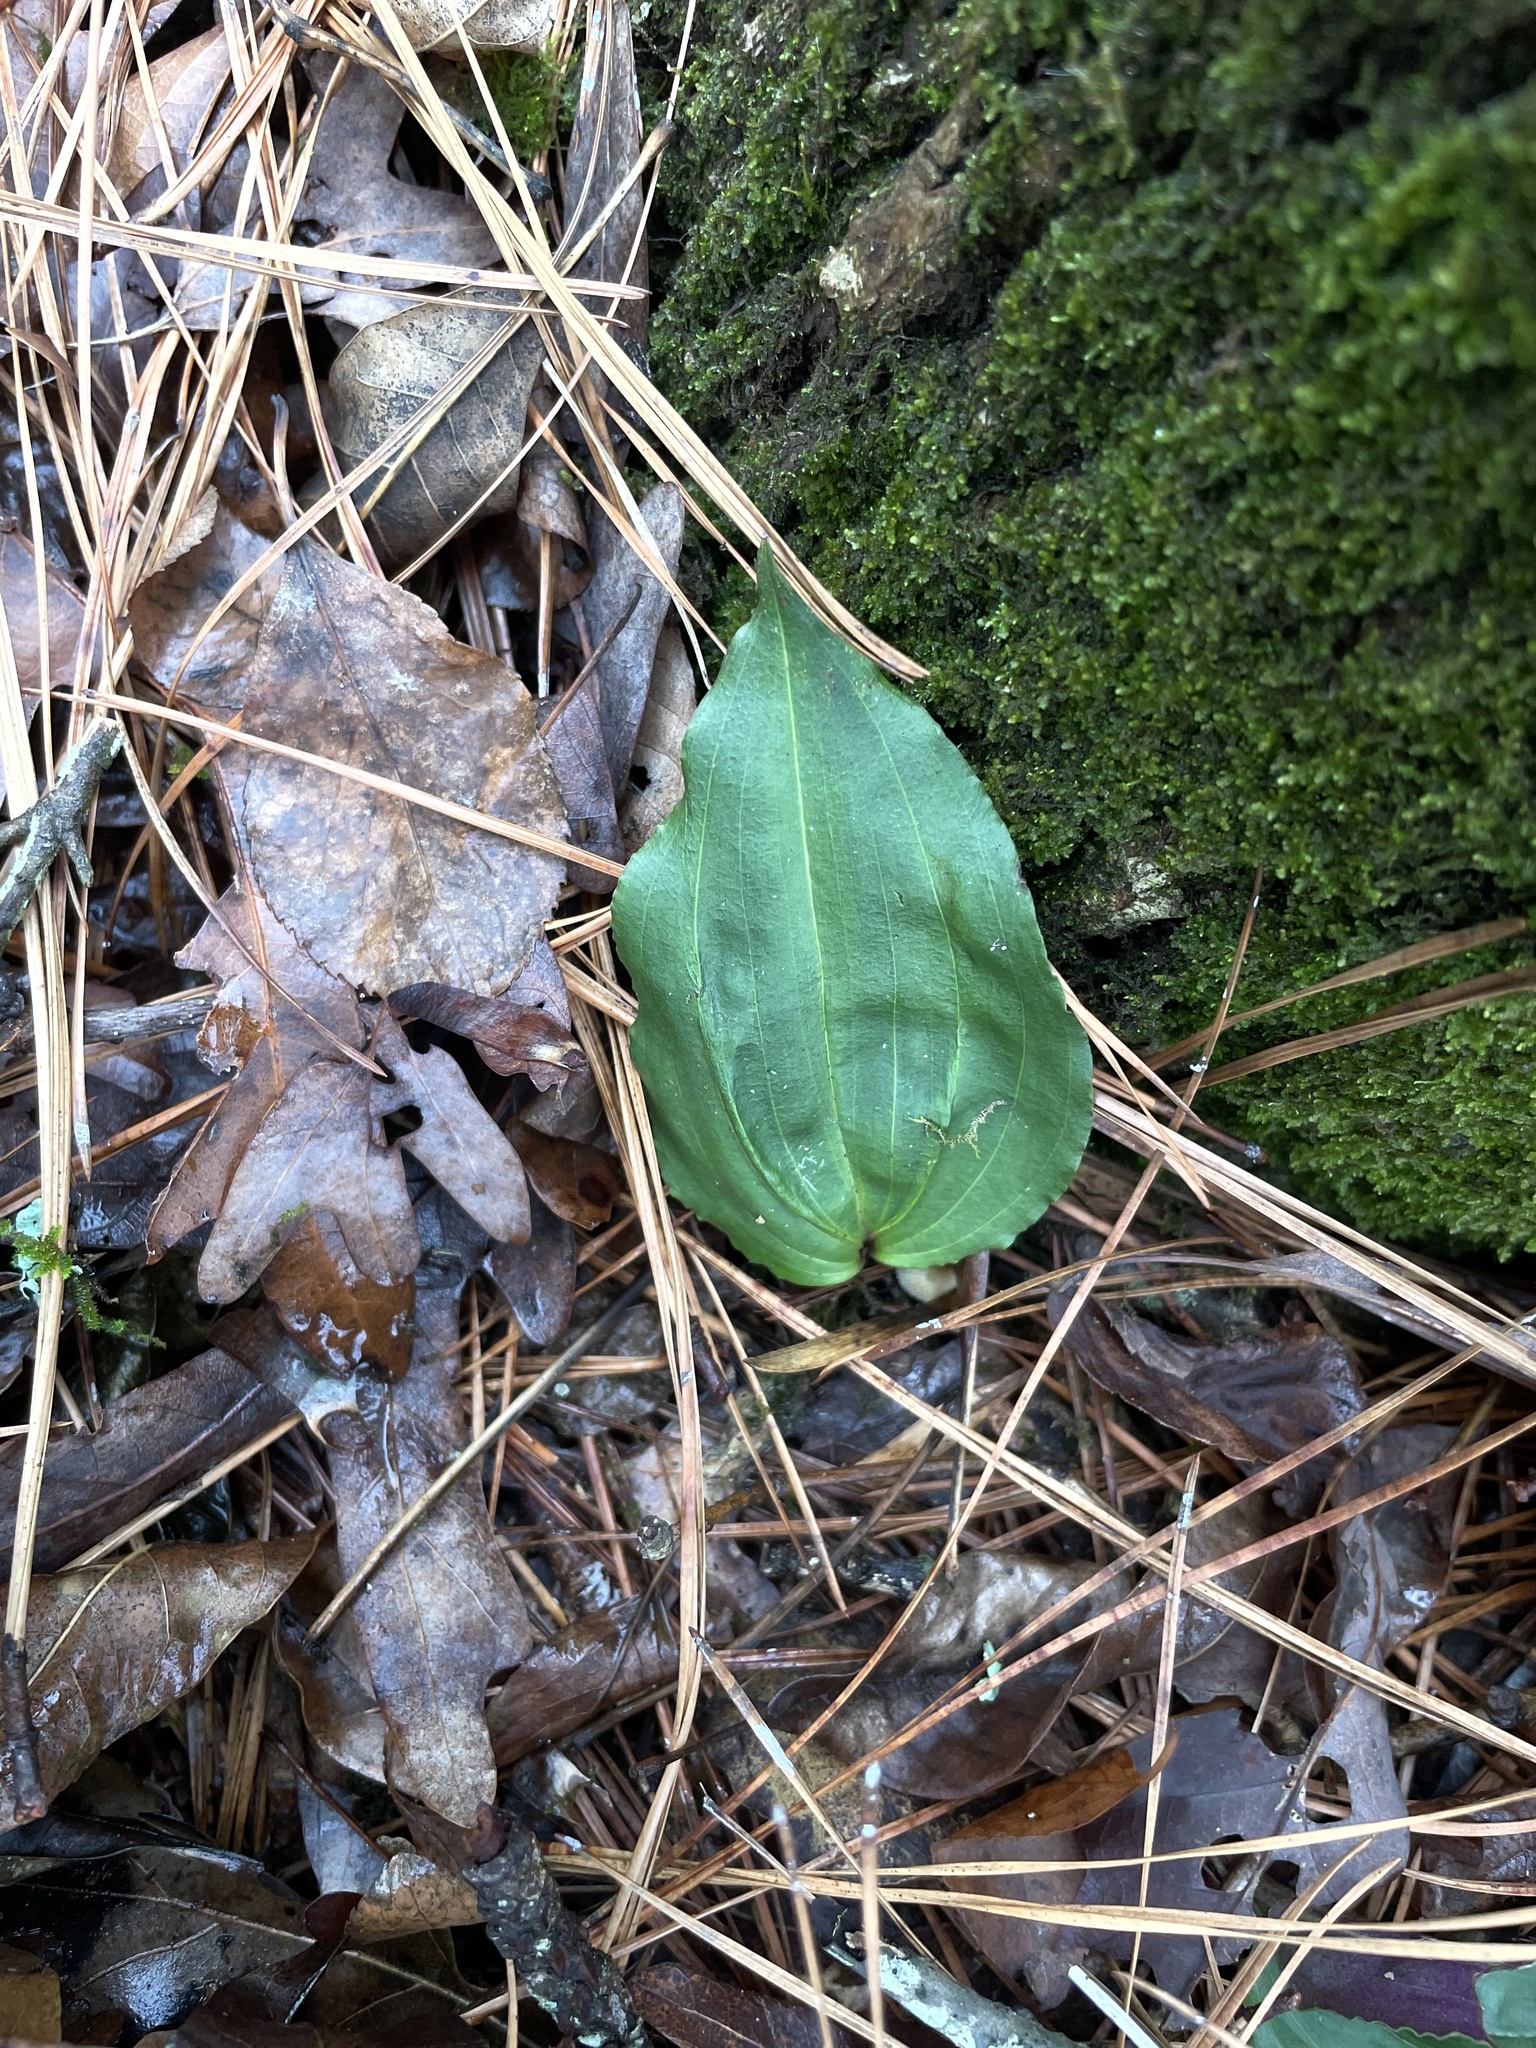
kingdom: Plantae
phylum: Tracheophyta
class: Liliopsida
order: Asparagales
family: Orchidaceae
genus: Tipularia
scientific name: Tipularia discolor
